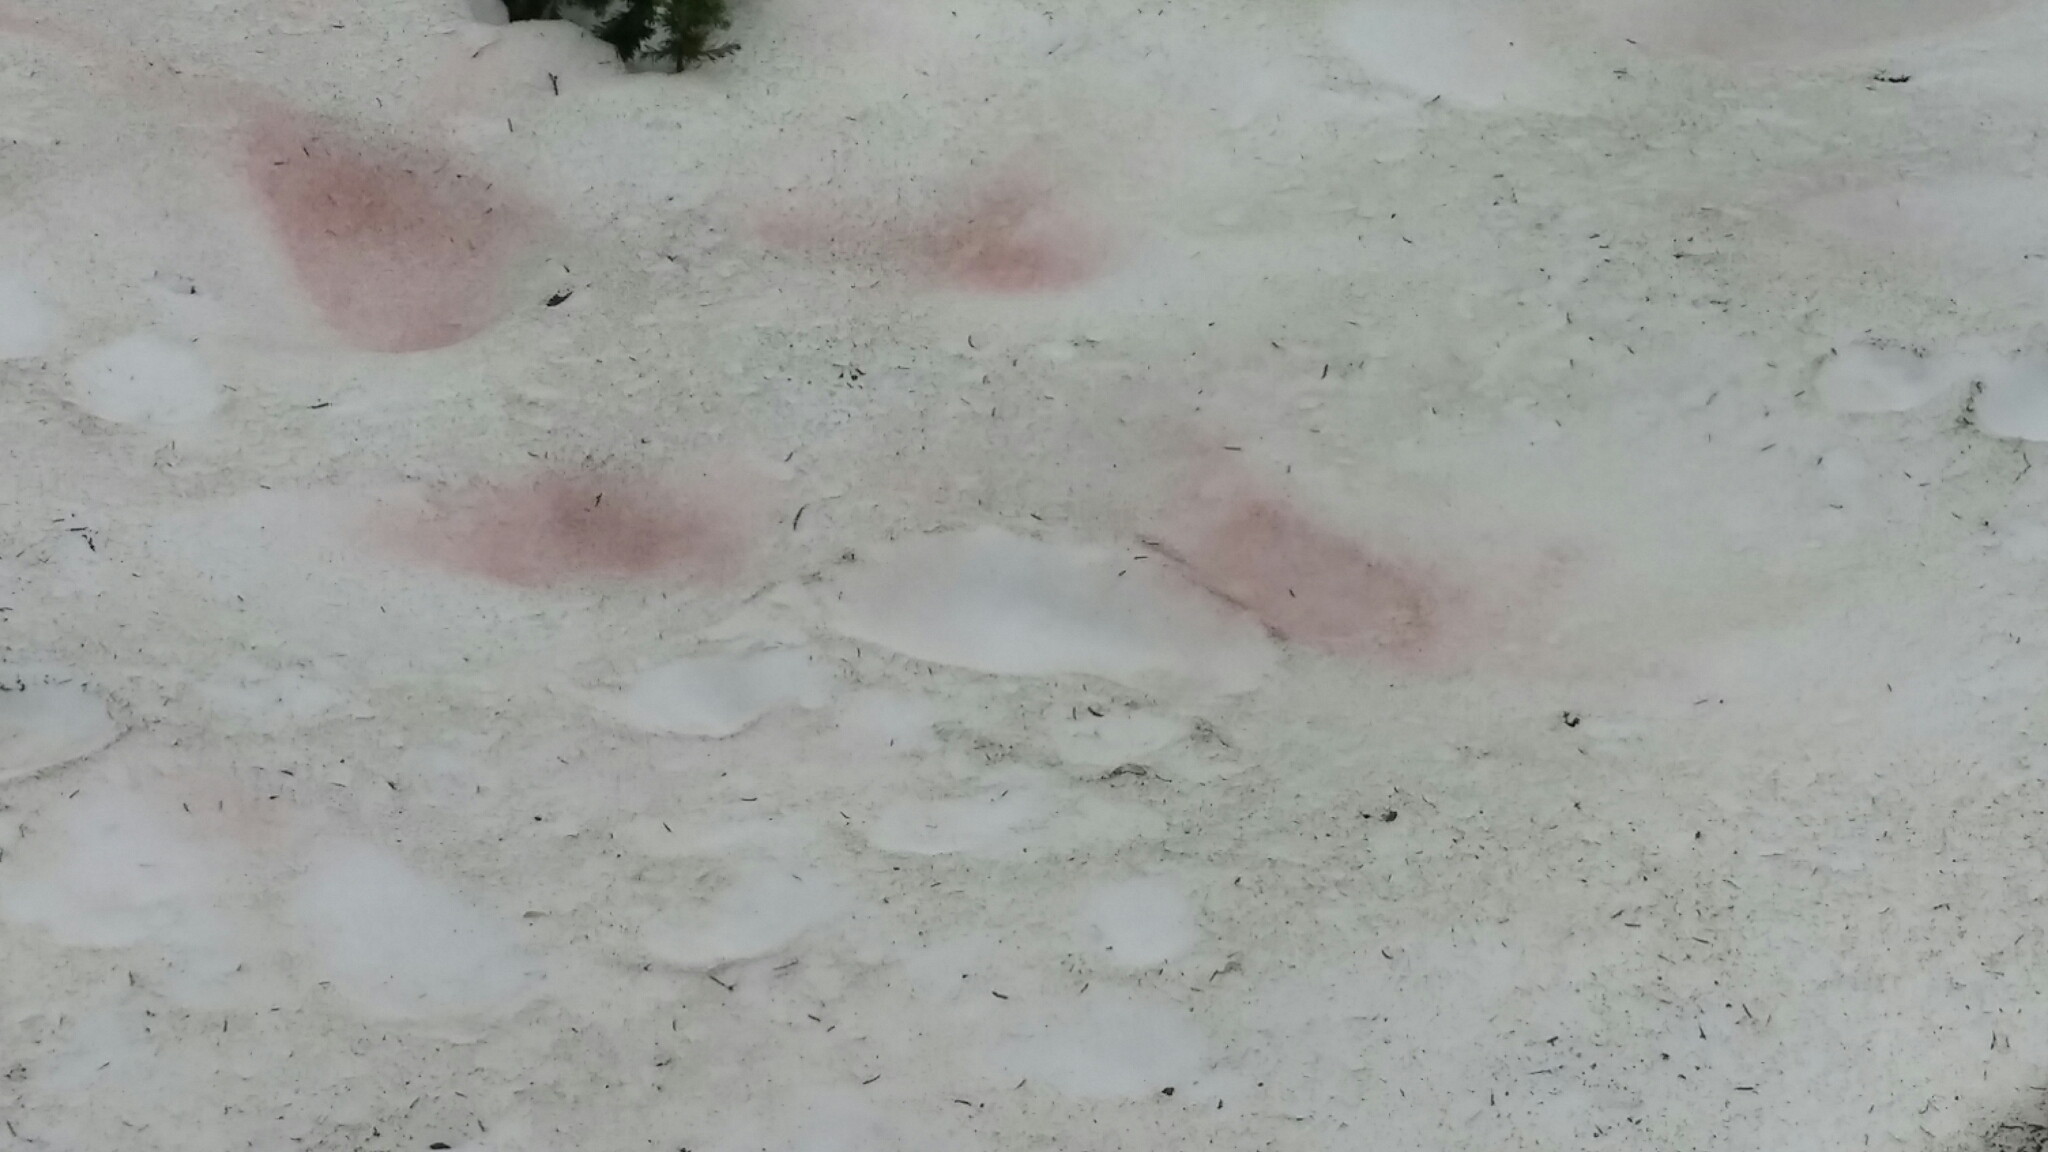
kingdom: Plantae
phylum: Chlorophyta
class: Chlorophyceae
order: Volvocales
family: Chlamydomonadaceae
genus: Chlamydomonas
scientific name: Chlamydomonas nivalis
